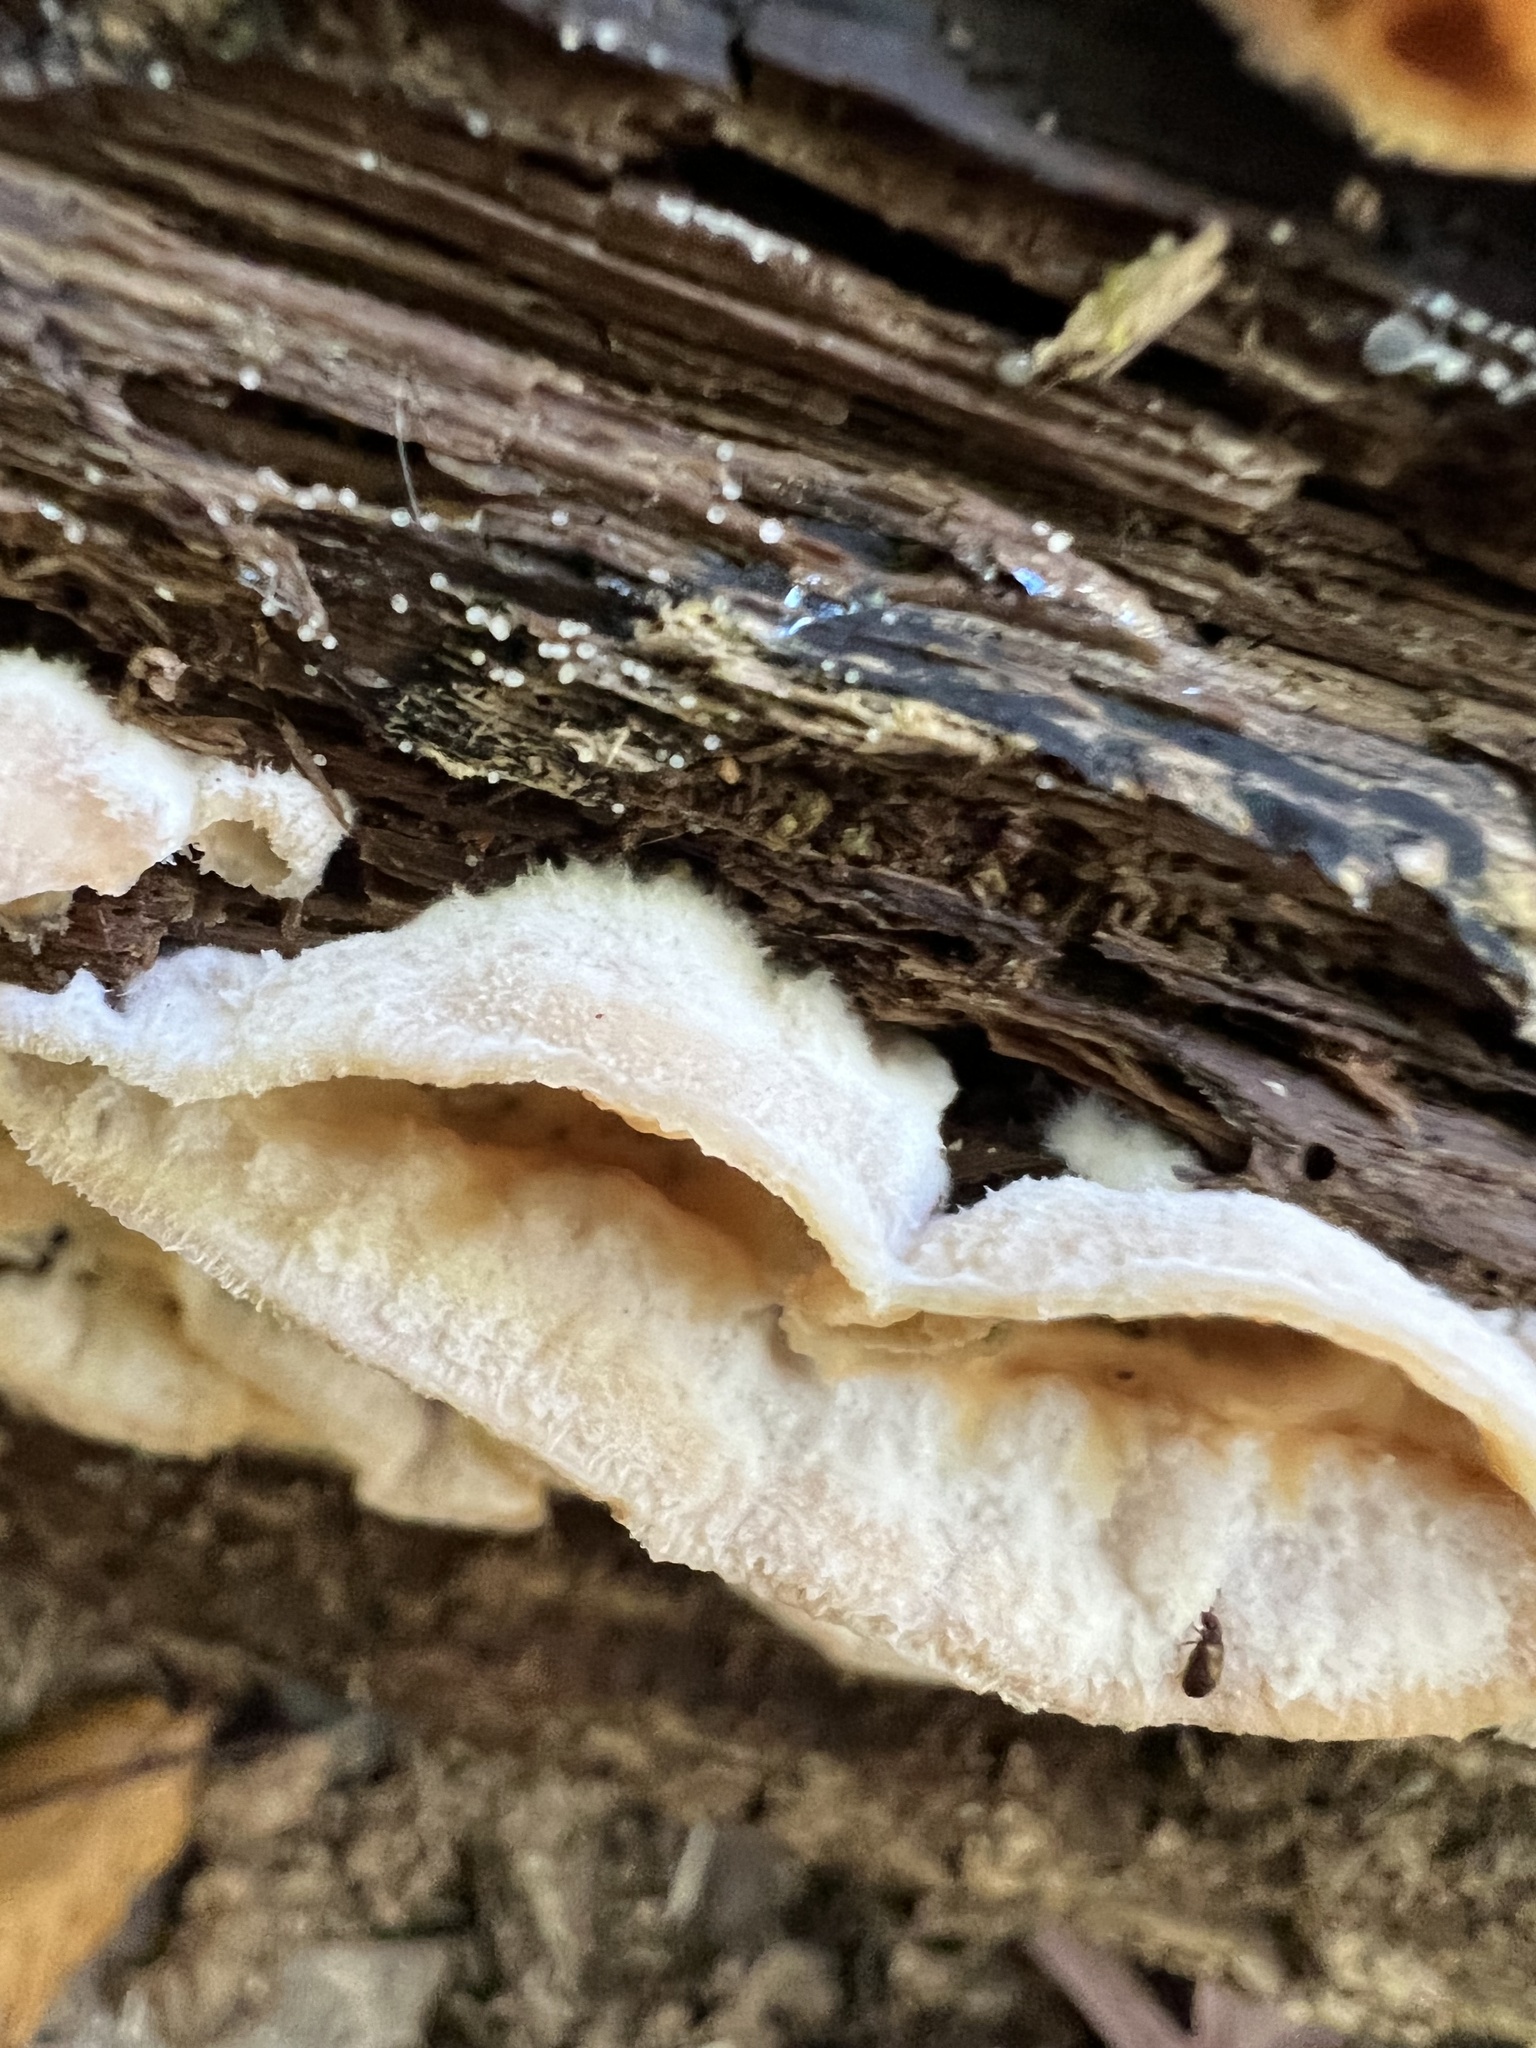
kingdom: Fungi
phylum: Basidiomycota
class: Agaricomycetes
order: Polyporales
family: Meruliaceae
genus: Phlebia
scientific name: Phlebia tremellosa
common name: Jelly rot
